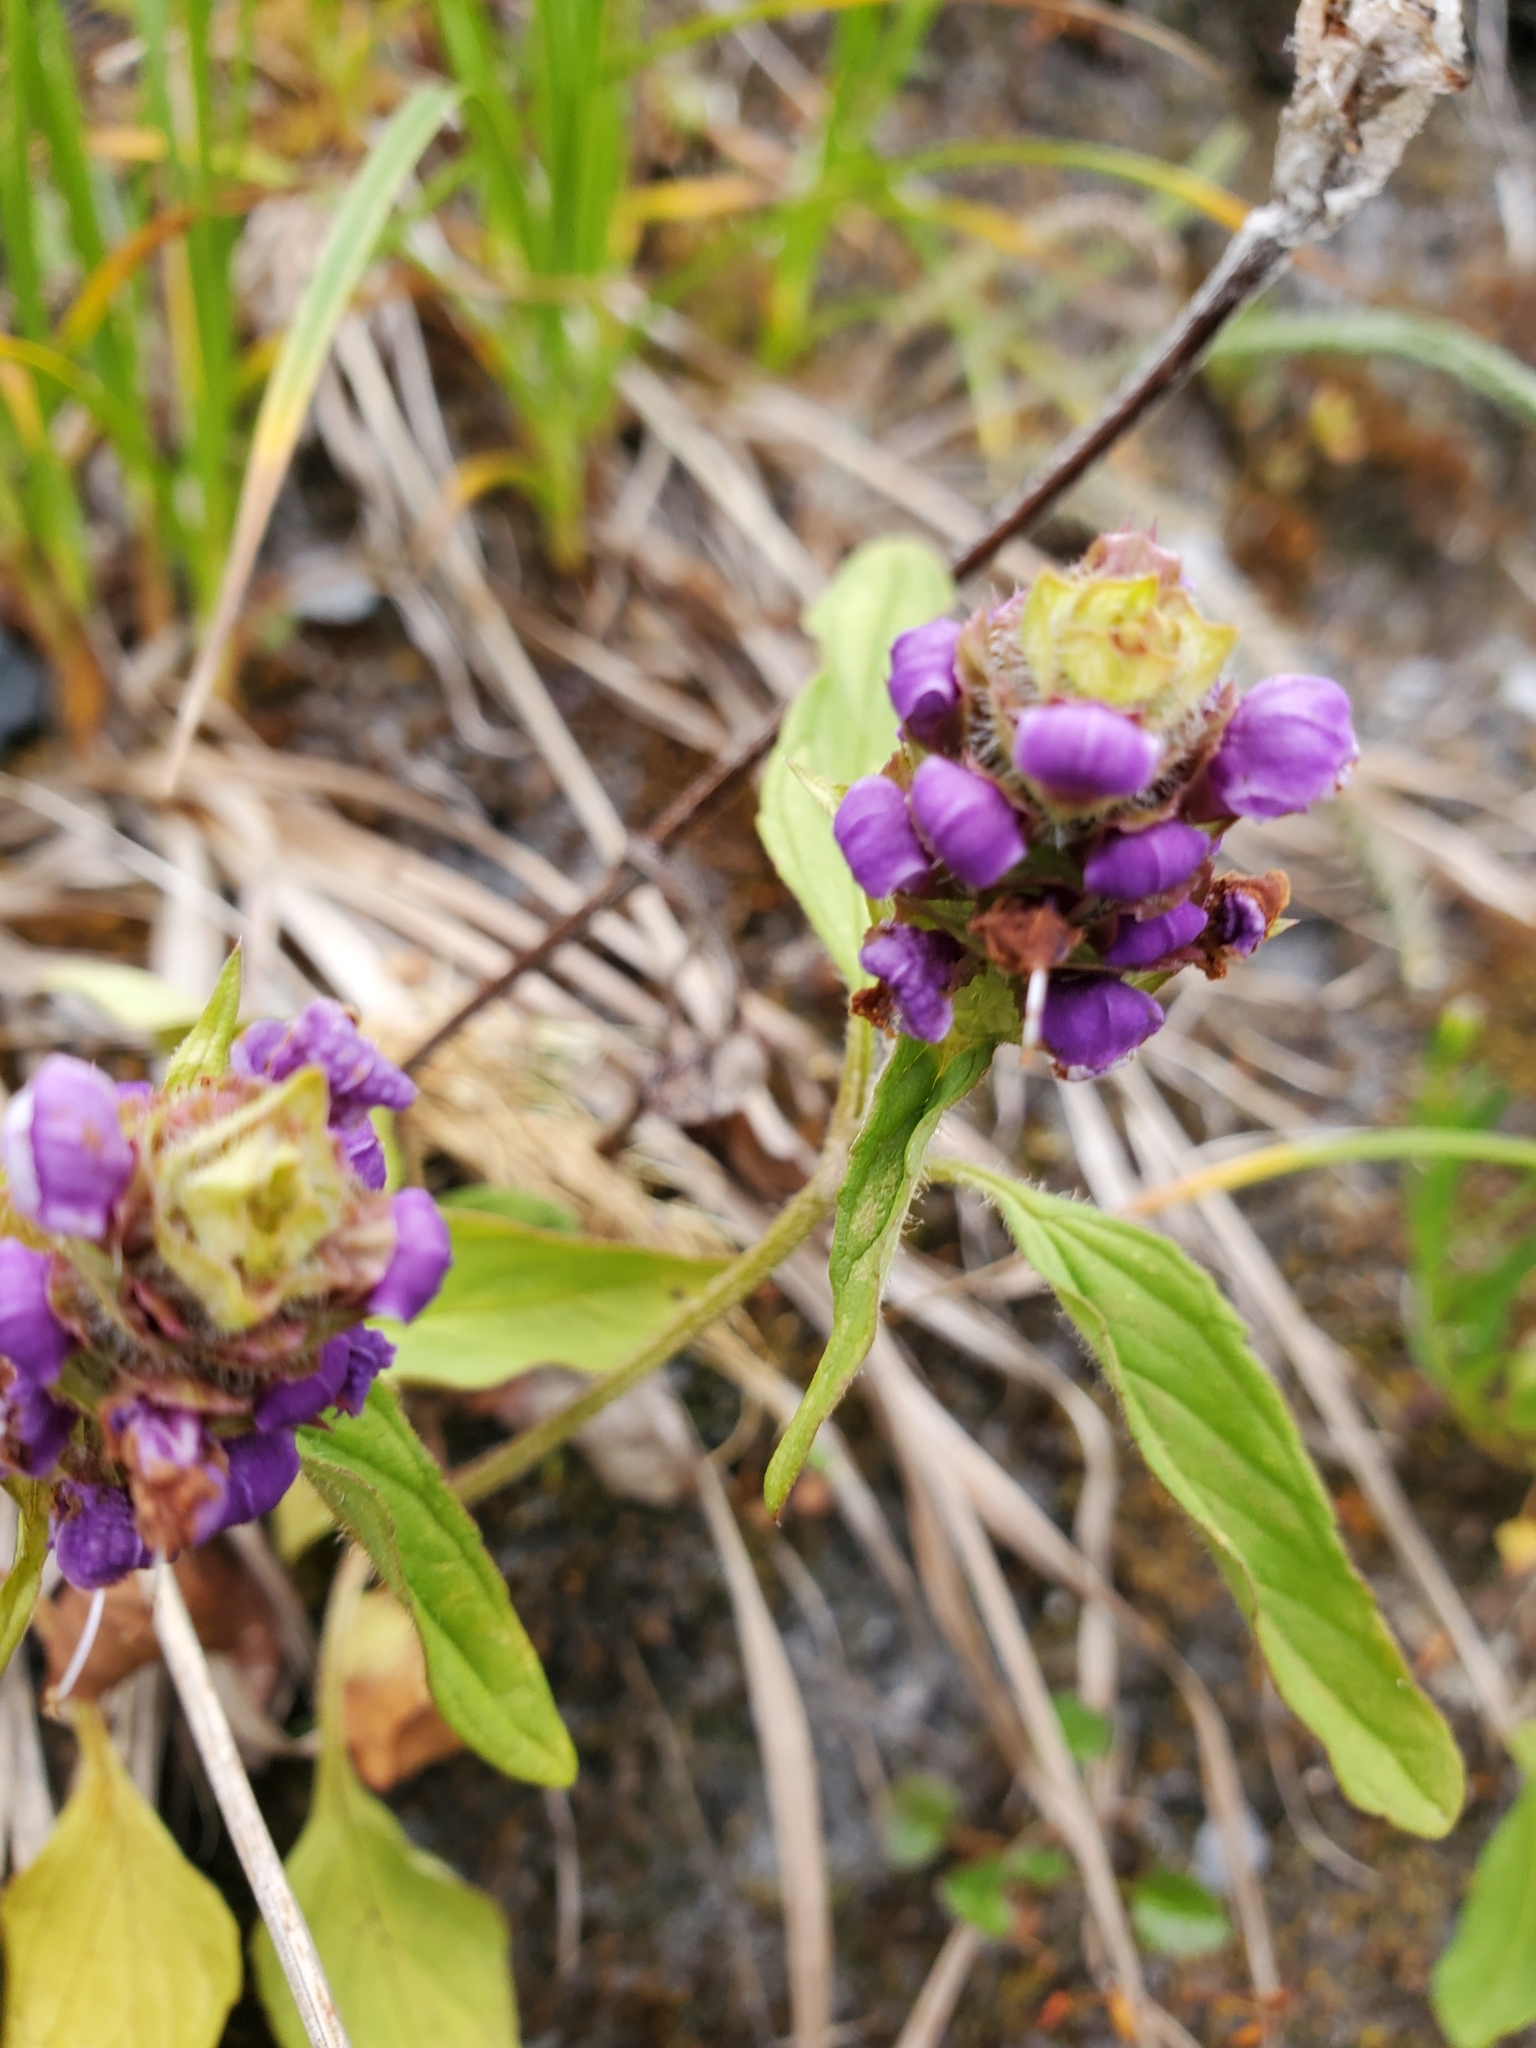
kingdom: Plantae
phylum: Tracheophyta
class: Magnoliopsida
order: Lamiales
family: Lamiaceae
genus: Prunella
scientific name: Prunella vulgaris
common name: Heal-all
